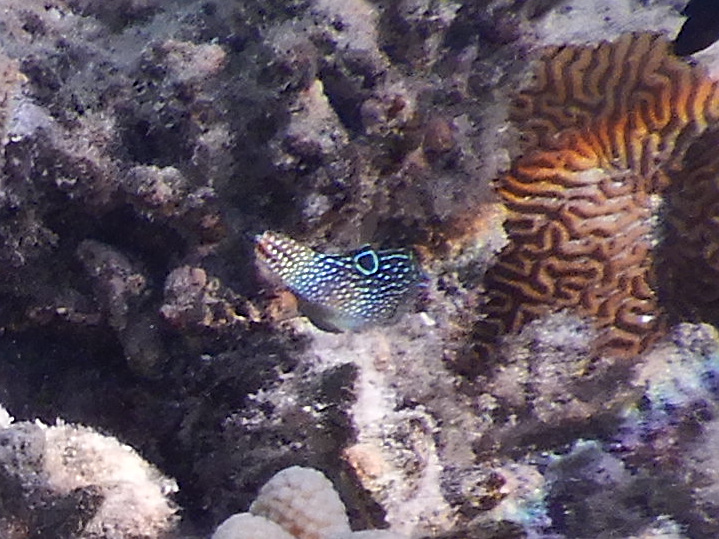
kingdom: Animalia
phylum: Chordata
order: Tetraodontiformes
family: Tetraodontidae
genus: Canthigaster
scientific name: Canthigaster solandri
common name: False-eye toby
